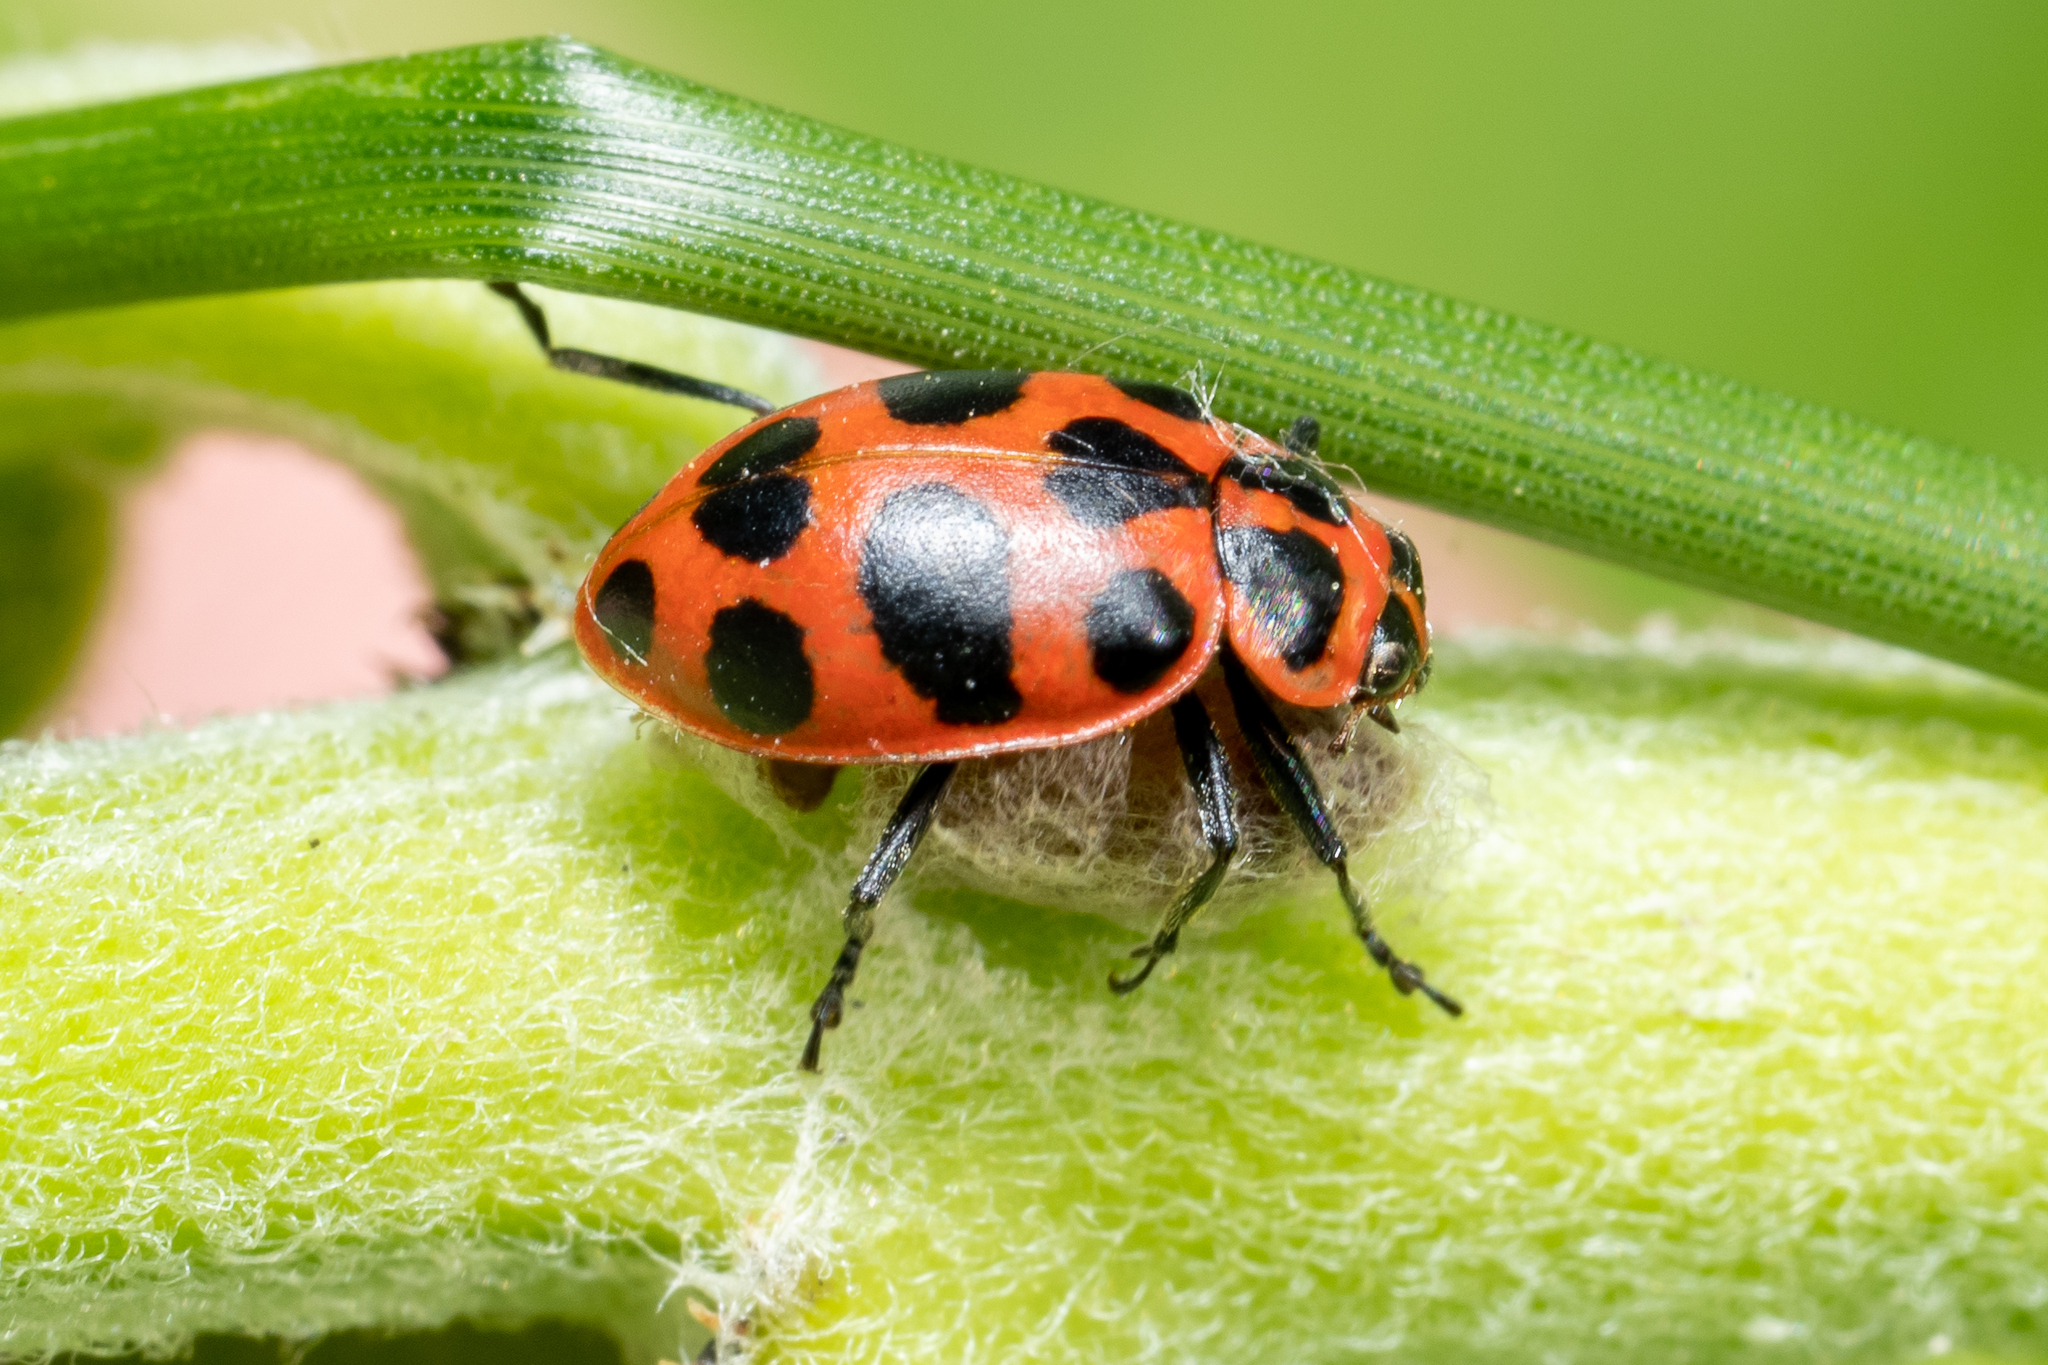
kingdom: Animalia
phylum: Arthropoda
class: Insecta
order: Coleoptera
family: Coccinellidae
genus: Coleomegilla
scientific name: Coleomegilla maculata
